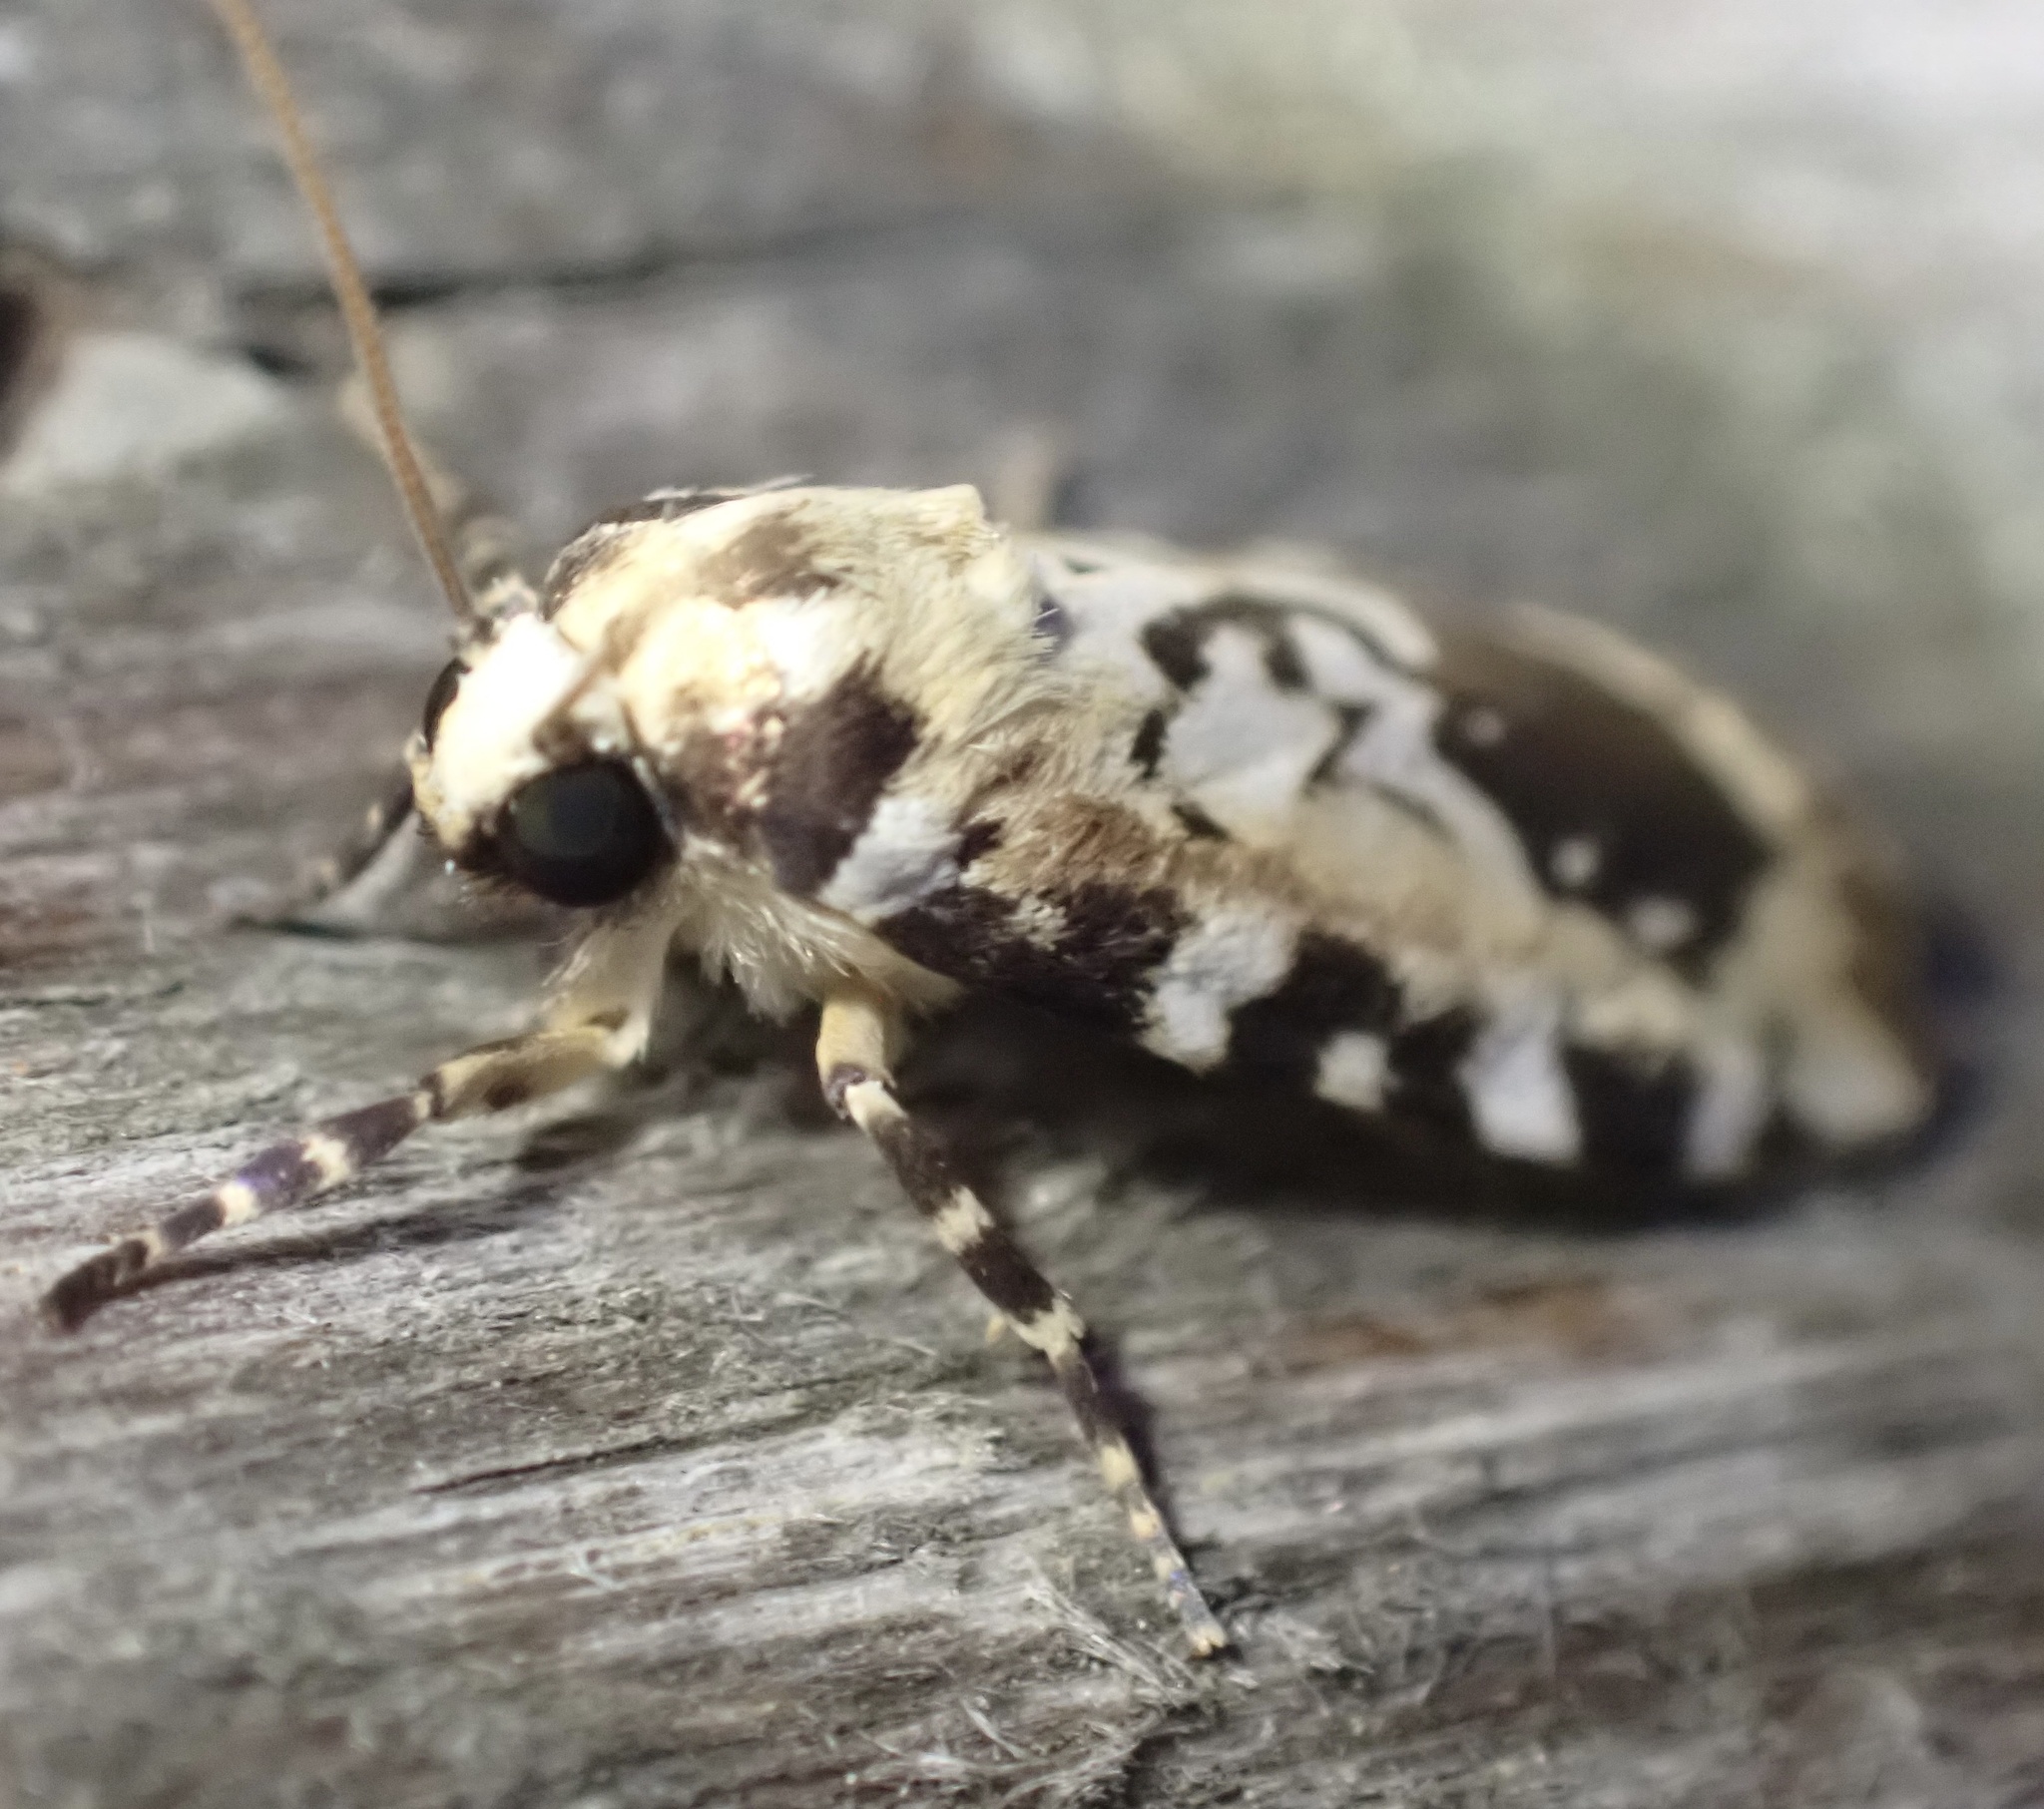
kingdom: Animalia
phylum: Arthropoda
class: Insecta
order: Lepidoptera
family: Erebidae
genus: Cyana
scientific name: Cyana nigroplagata
